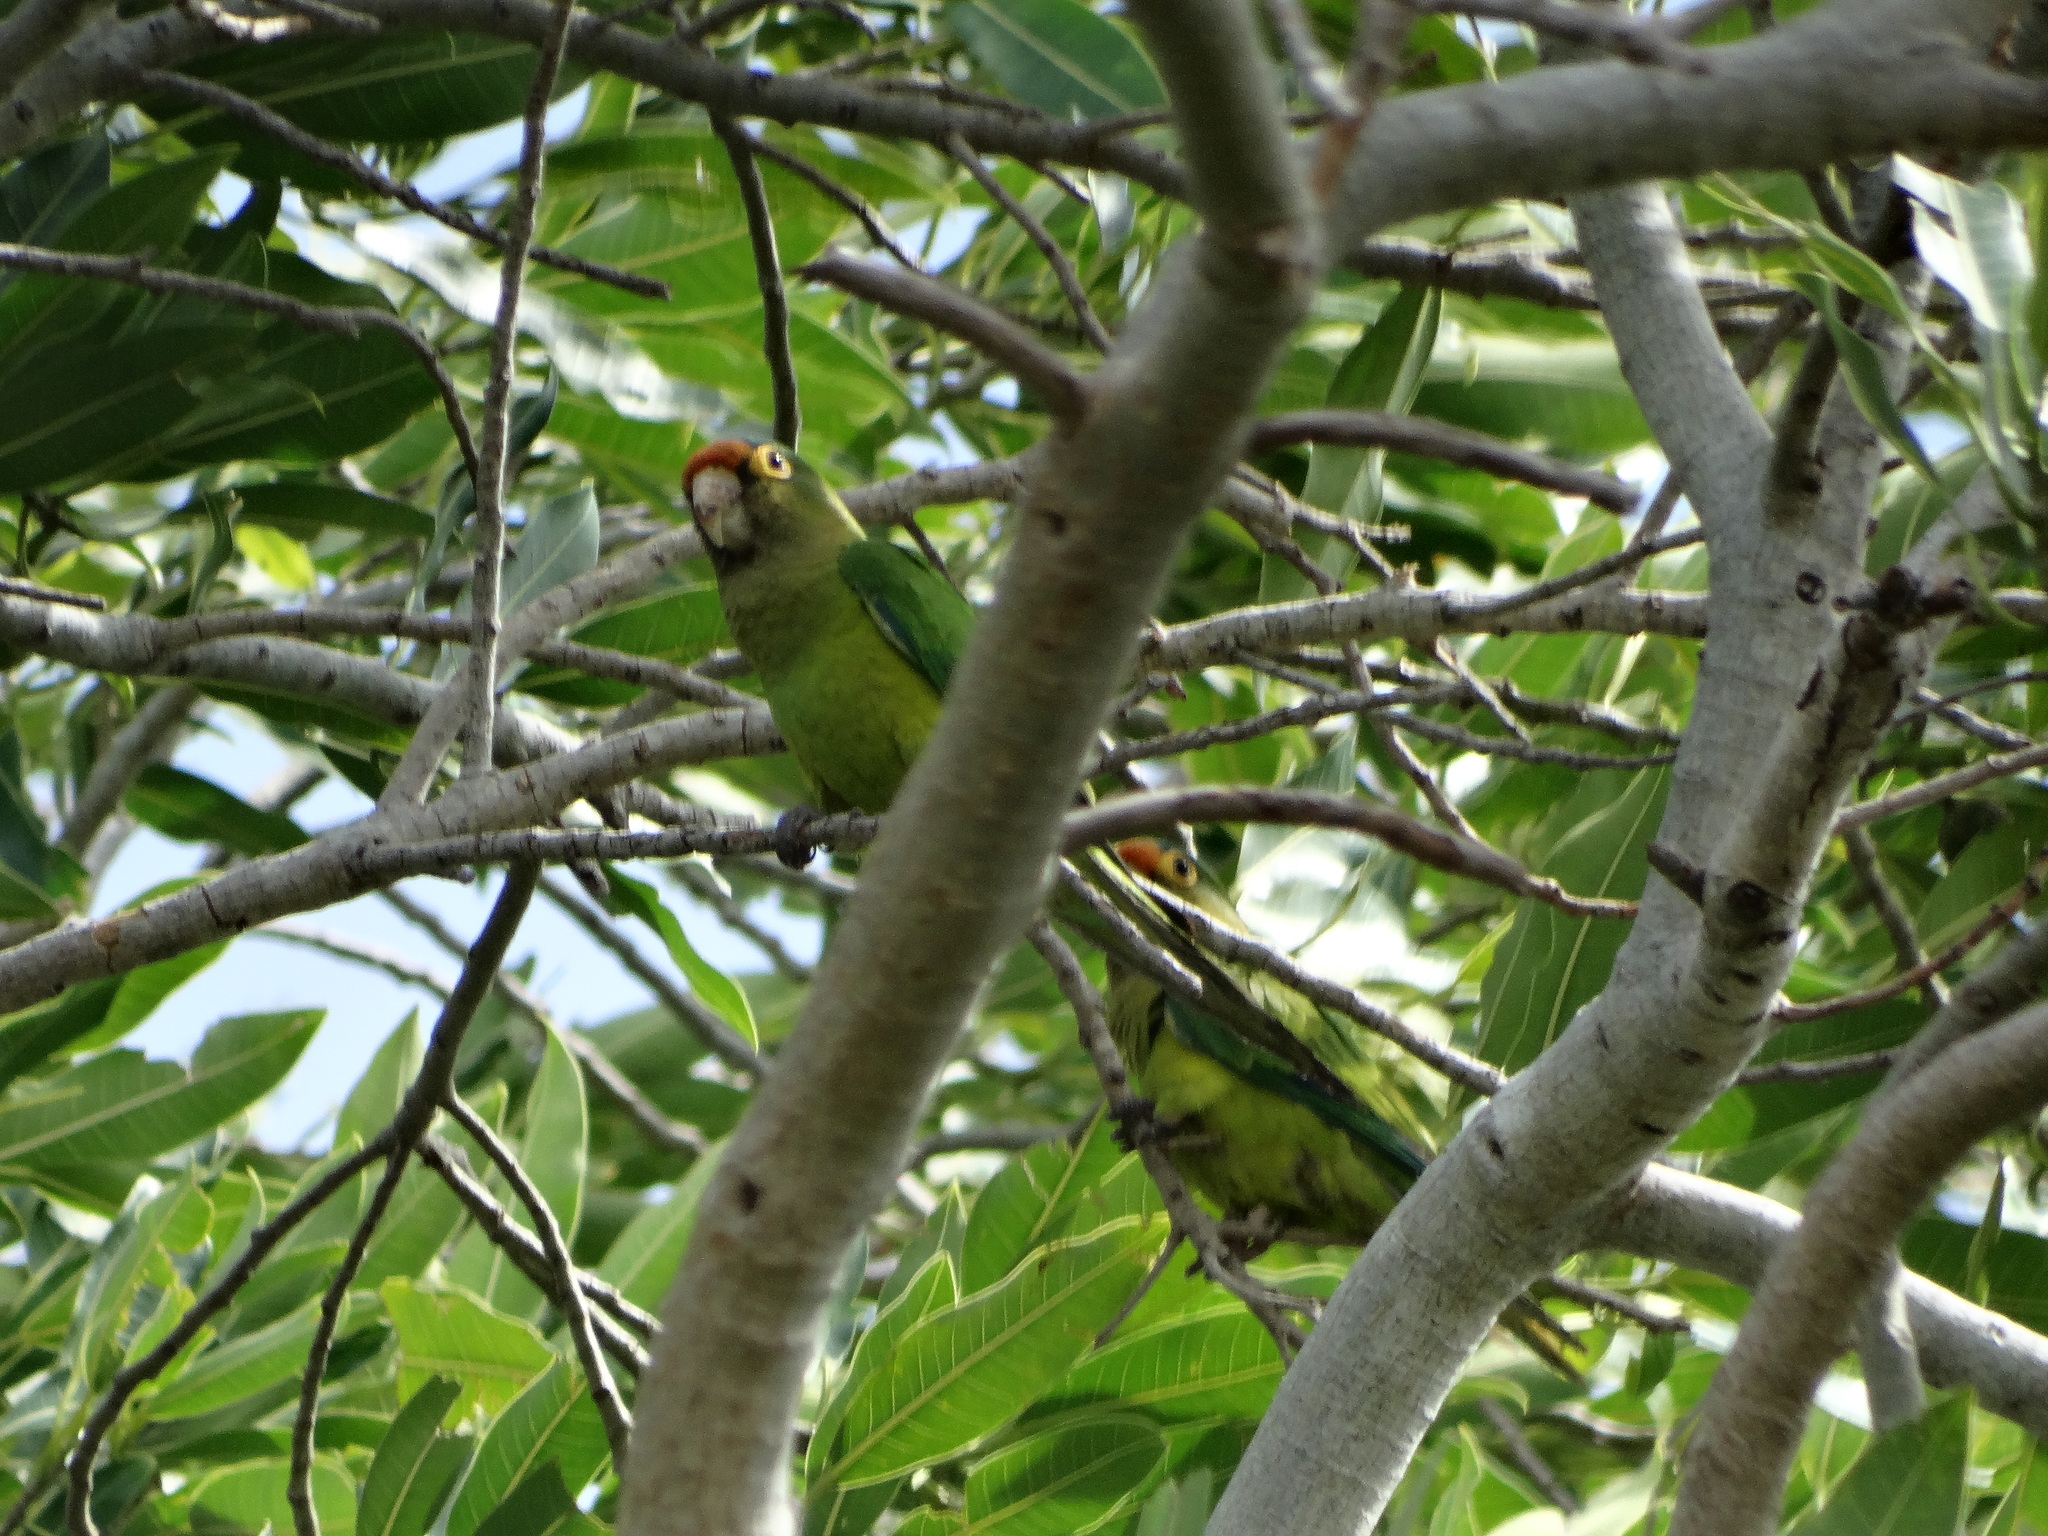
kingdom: Animalia
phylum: Chordata
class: Aves
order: Psittaciformes
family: Psittacidae
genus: Aratinga
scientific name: Aratinga canicularis
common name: Orange-fronted parakeet
